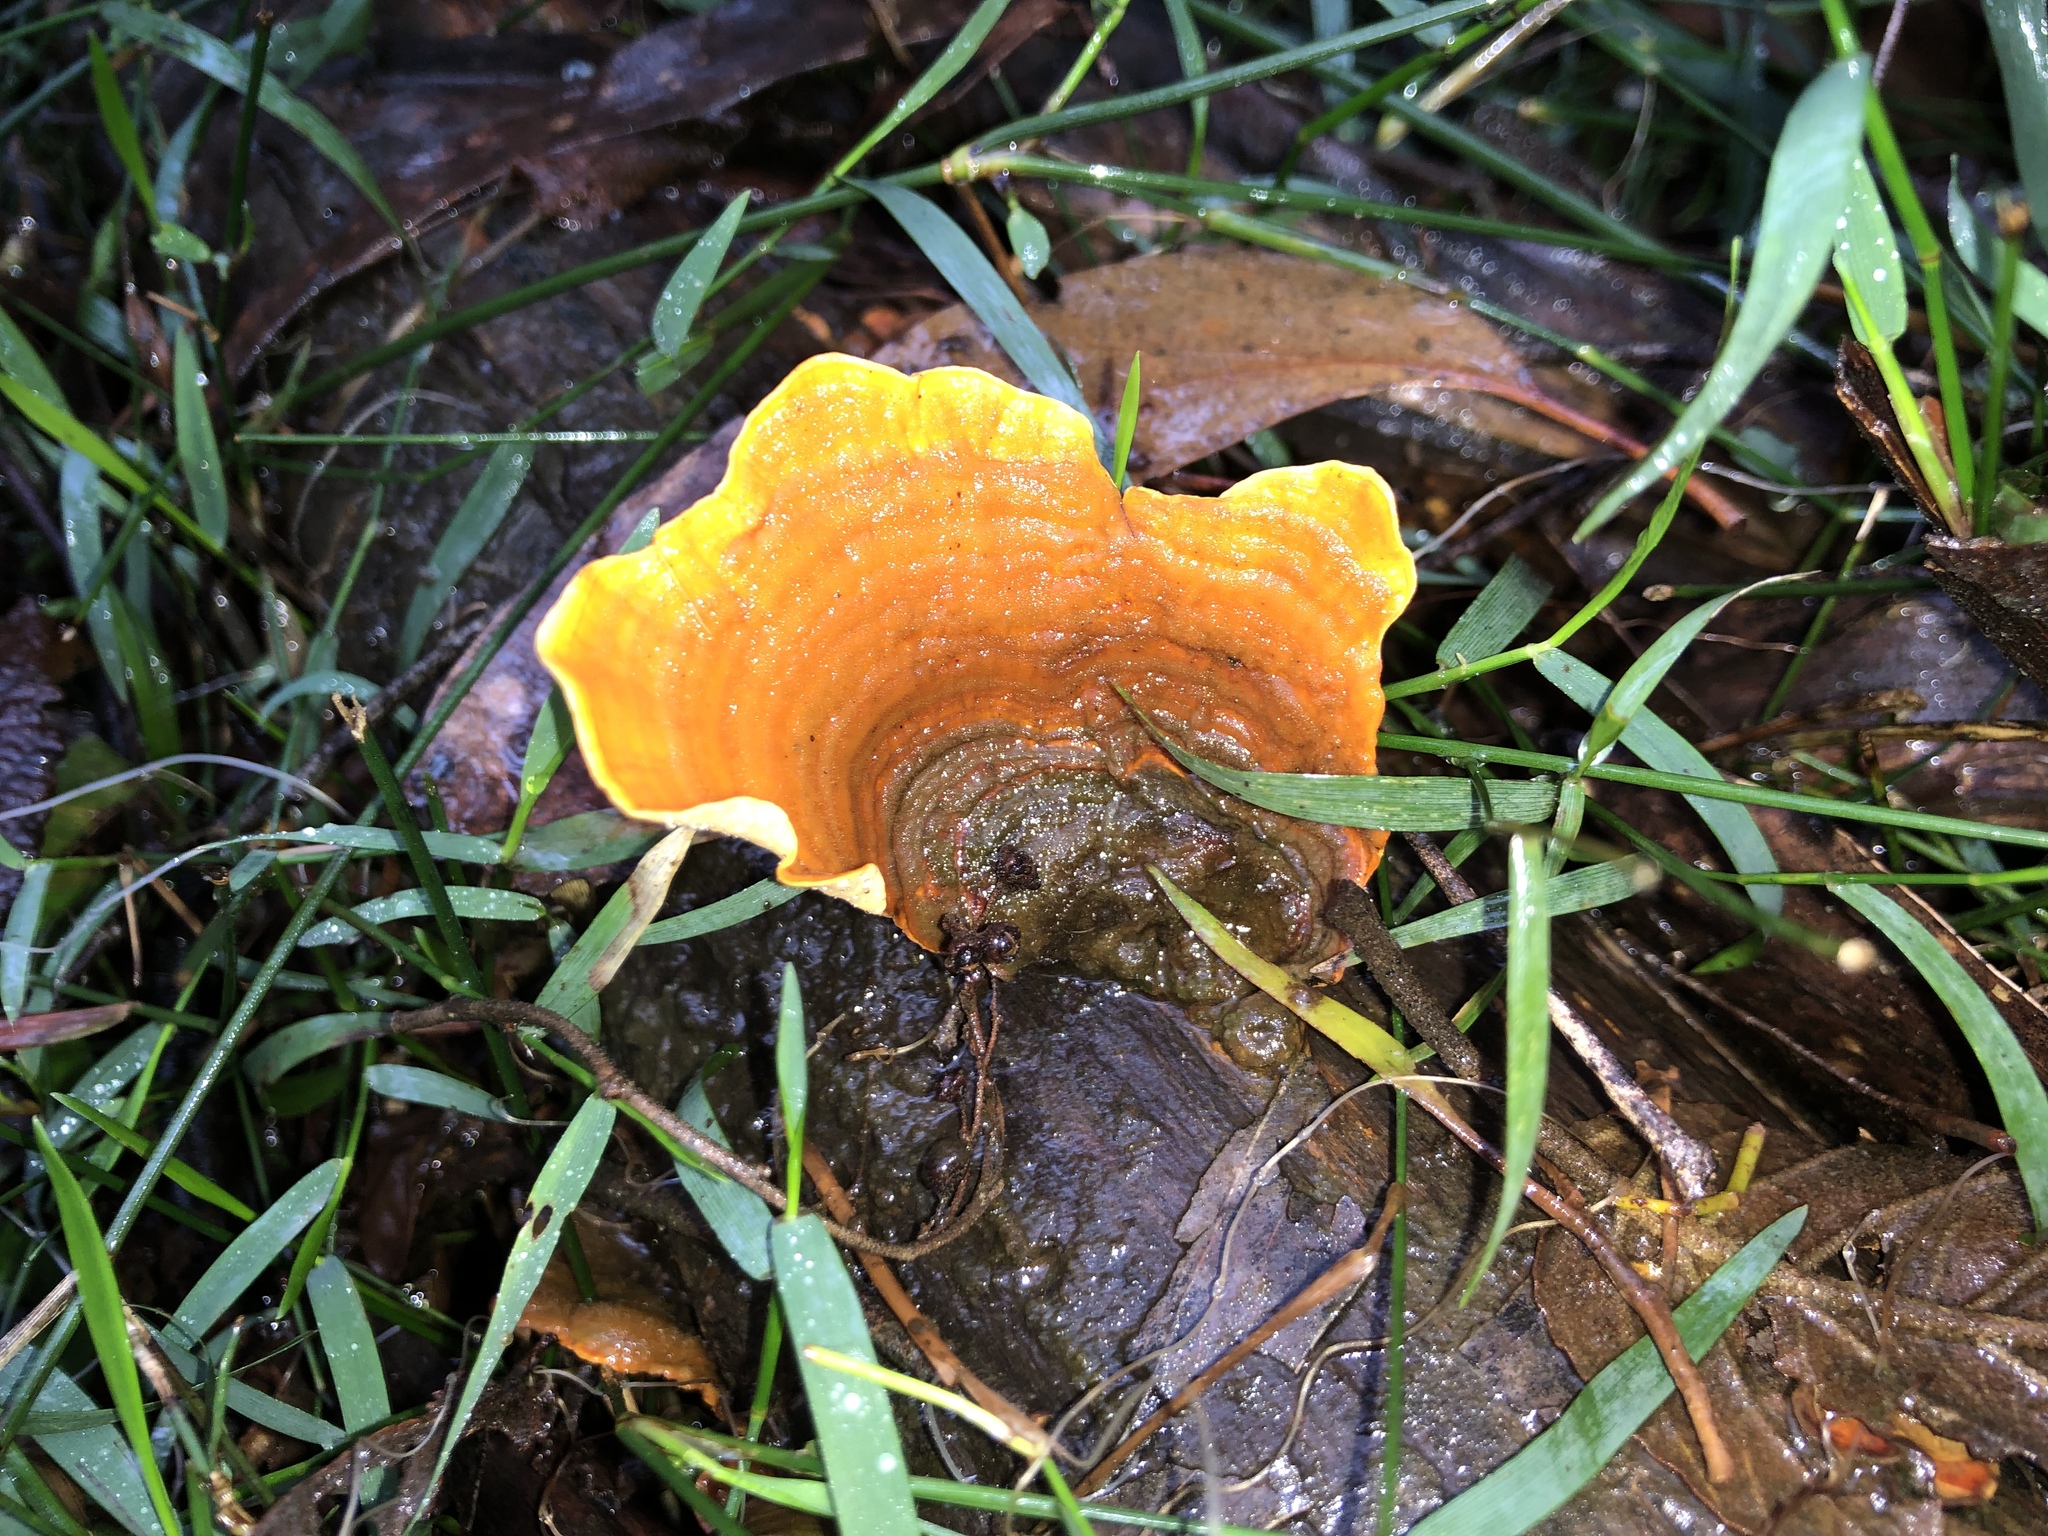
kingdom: Fungi
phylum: Basidiomycota
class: Agaricomycetes
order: Russulales
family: Stereaceae
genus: Stereum
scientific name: Stereum versicolor
